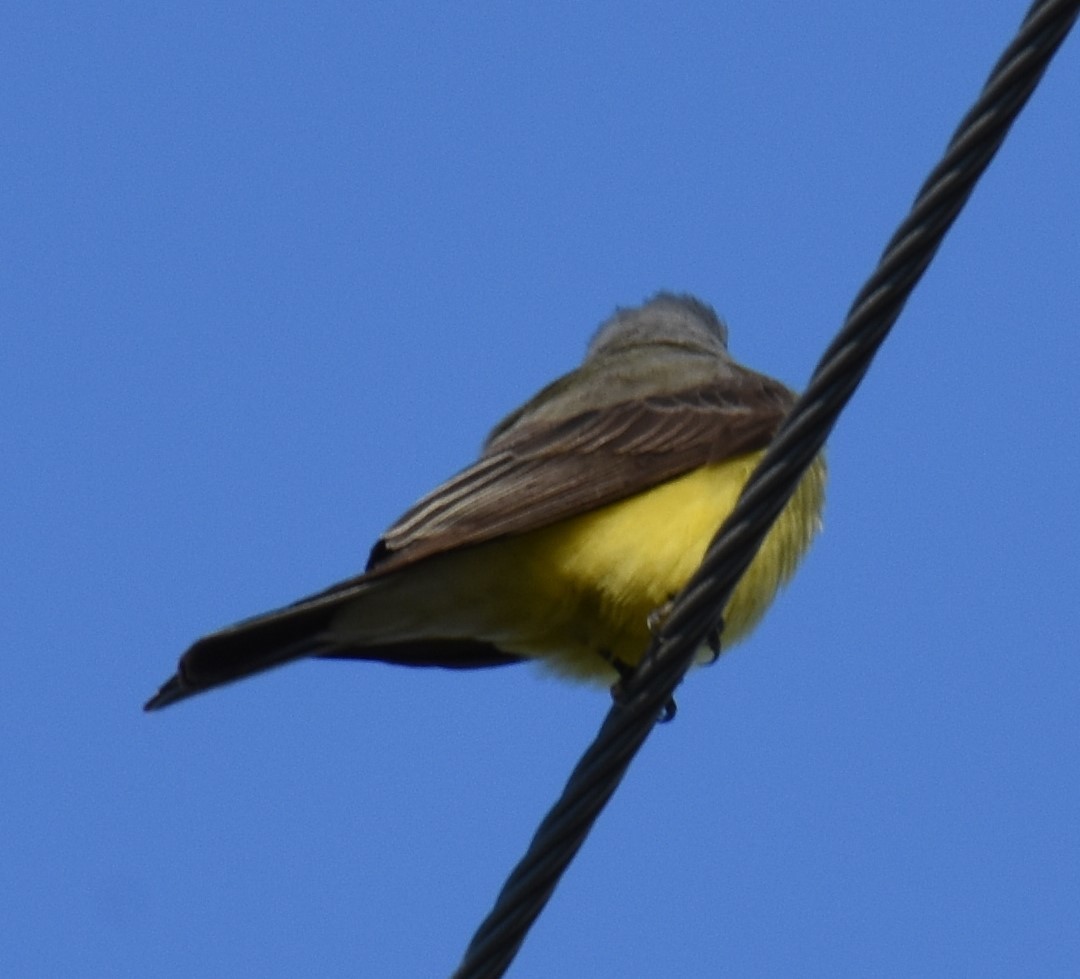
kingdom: Animalia
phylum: Chordata
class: Aves
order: Passeriformes
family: Tyrannidae
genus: Tyrannus
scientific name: Tyrannus verticalis
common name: Western kingbird
